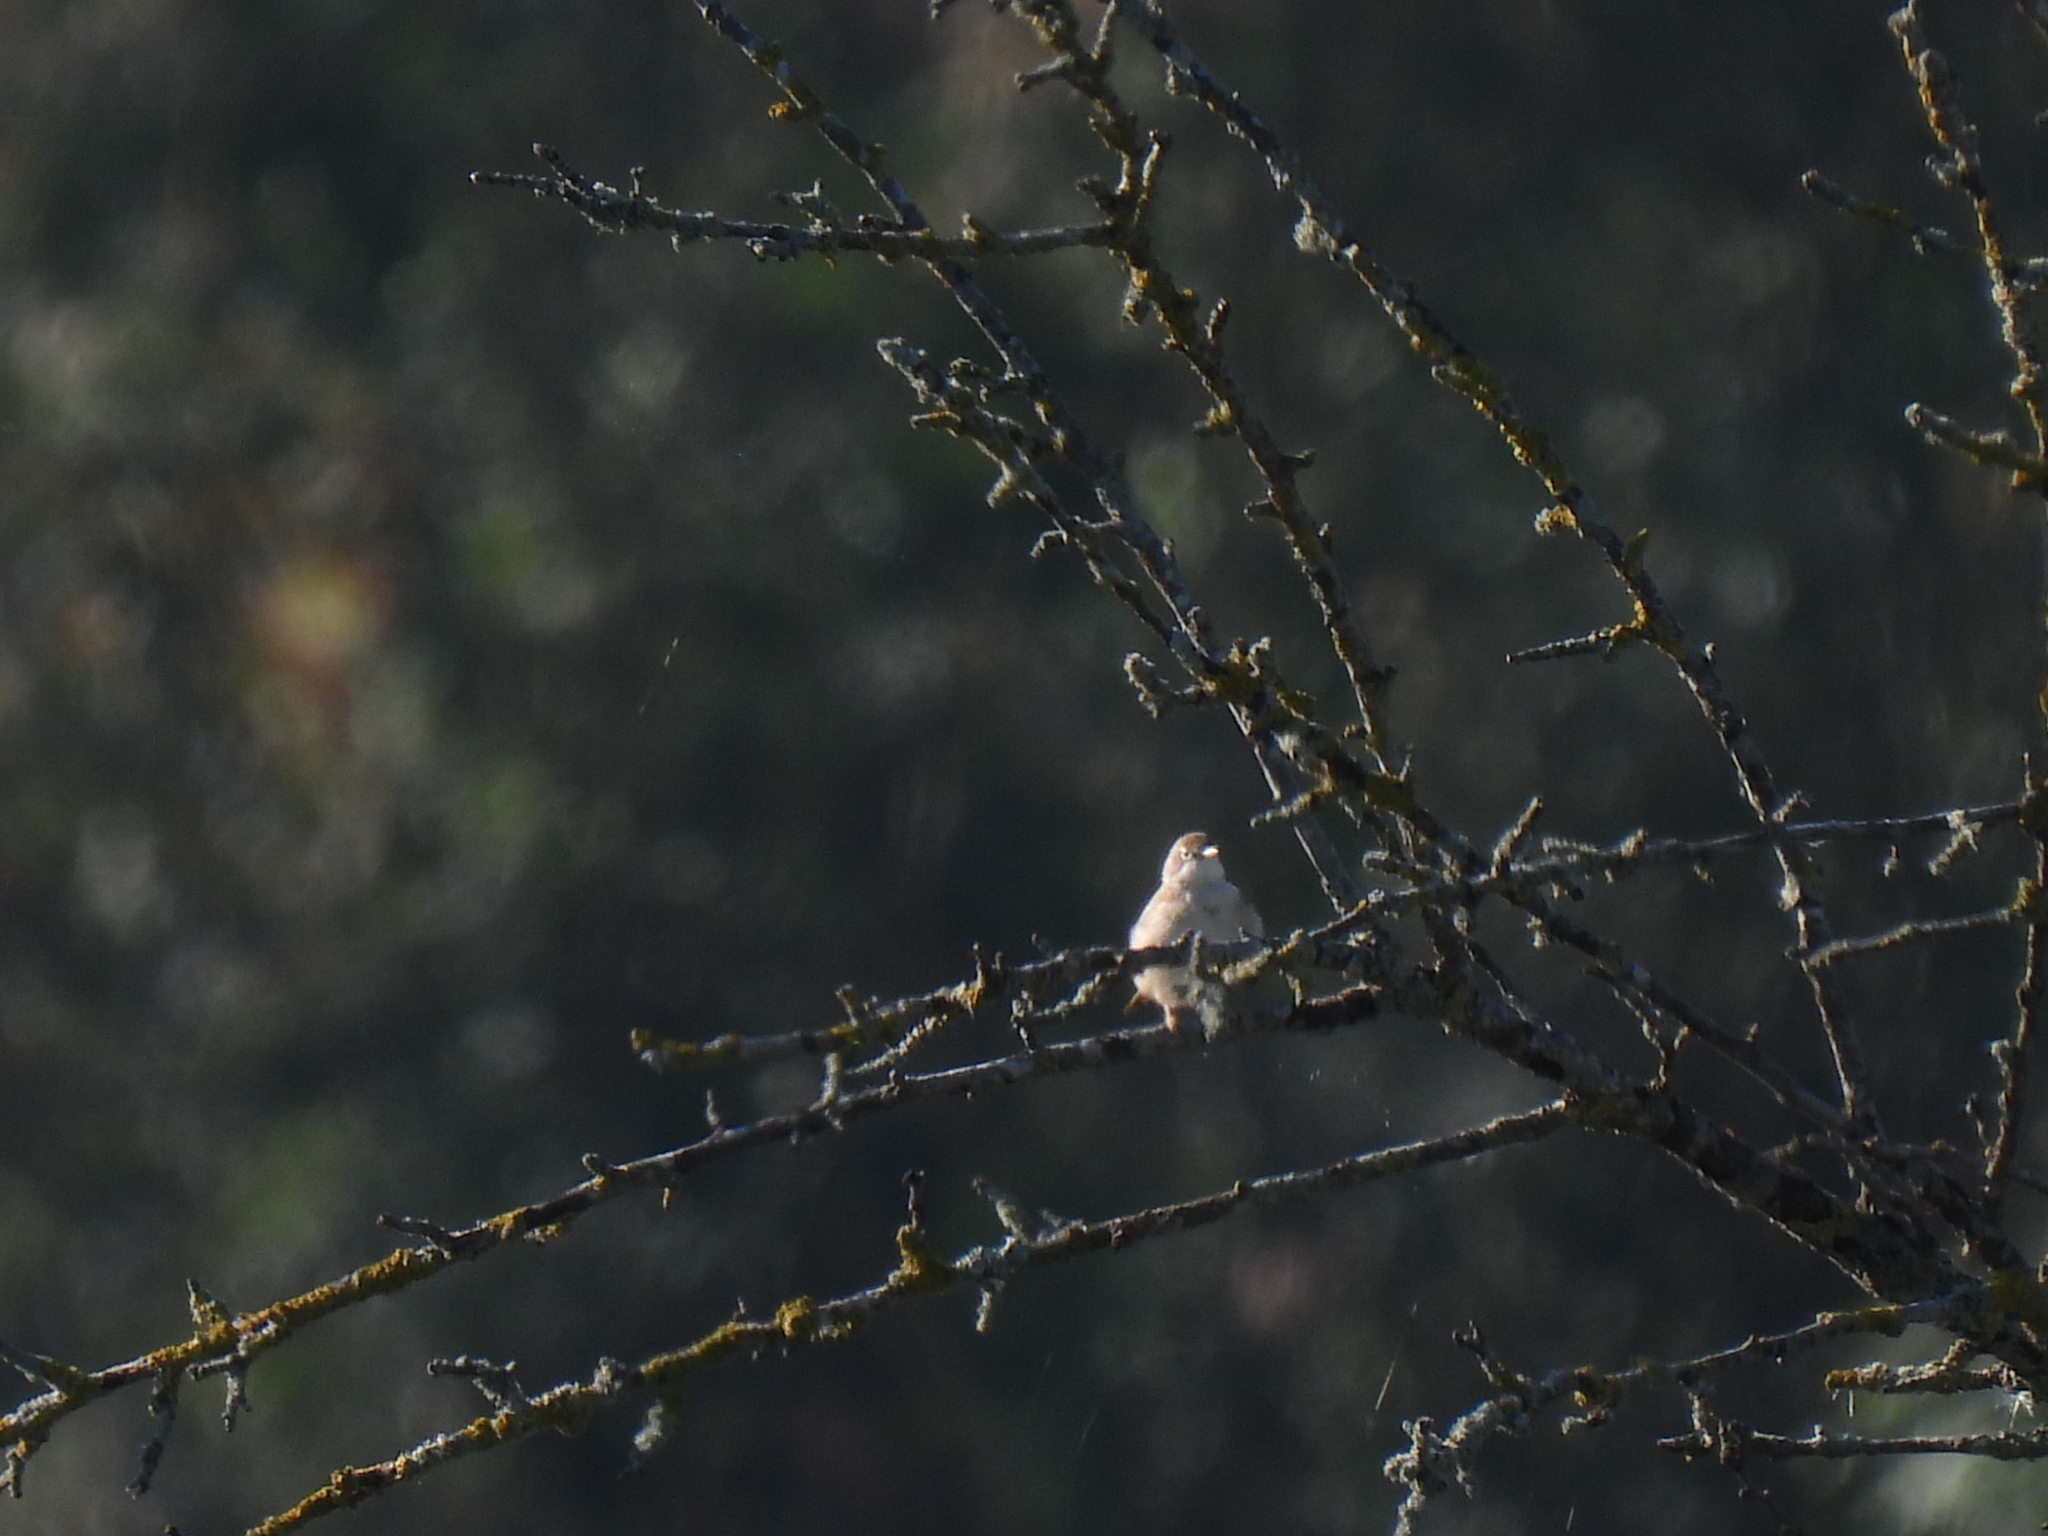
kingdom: Animalia
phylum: Chordata
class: Aves
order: Passeriformes
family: Sylviidae
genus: Sylvia
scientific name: Sylvia communis
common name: Common whitethroat
